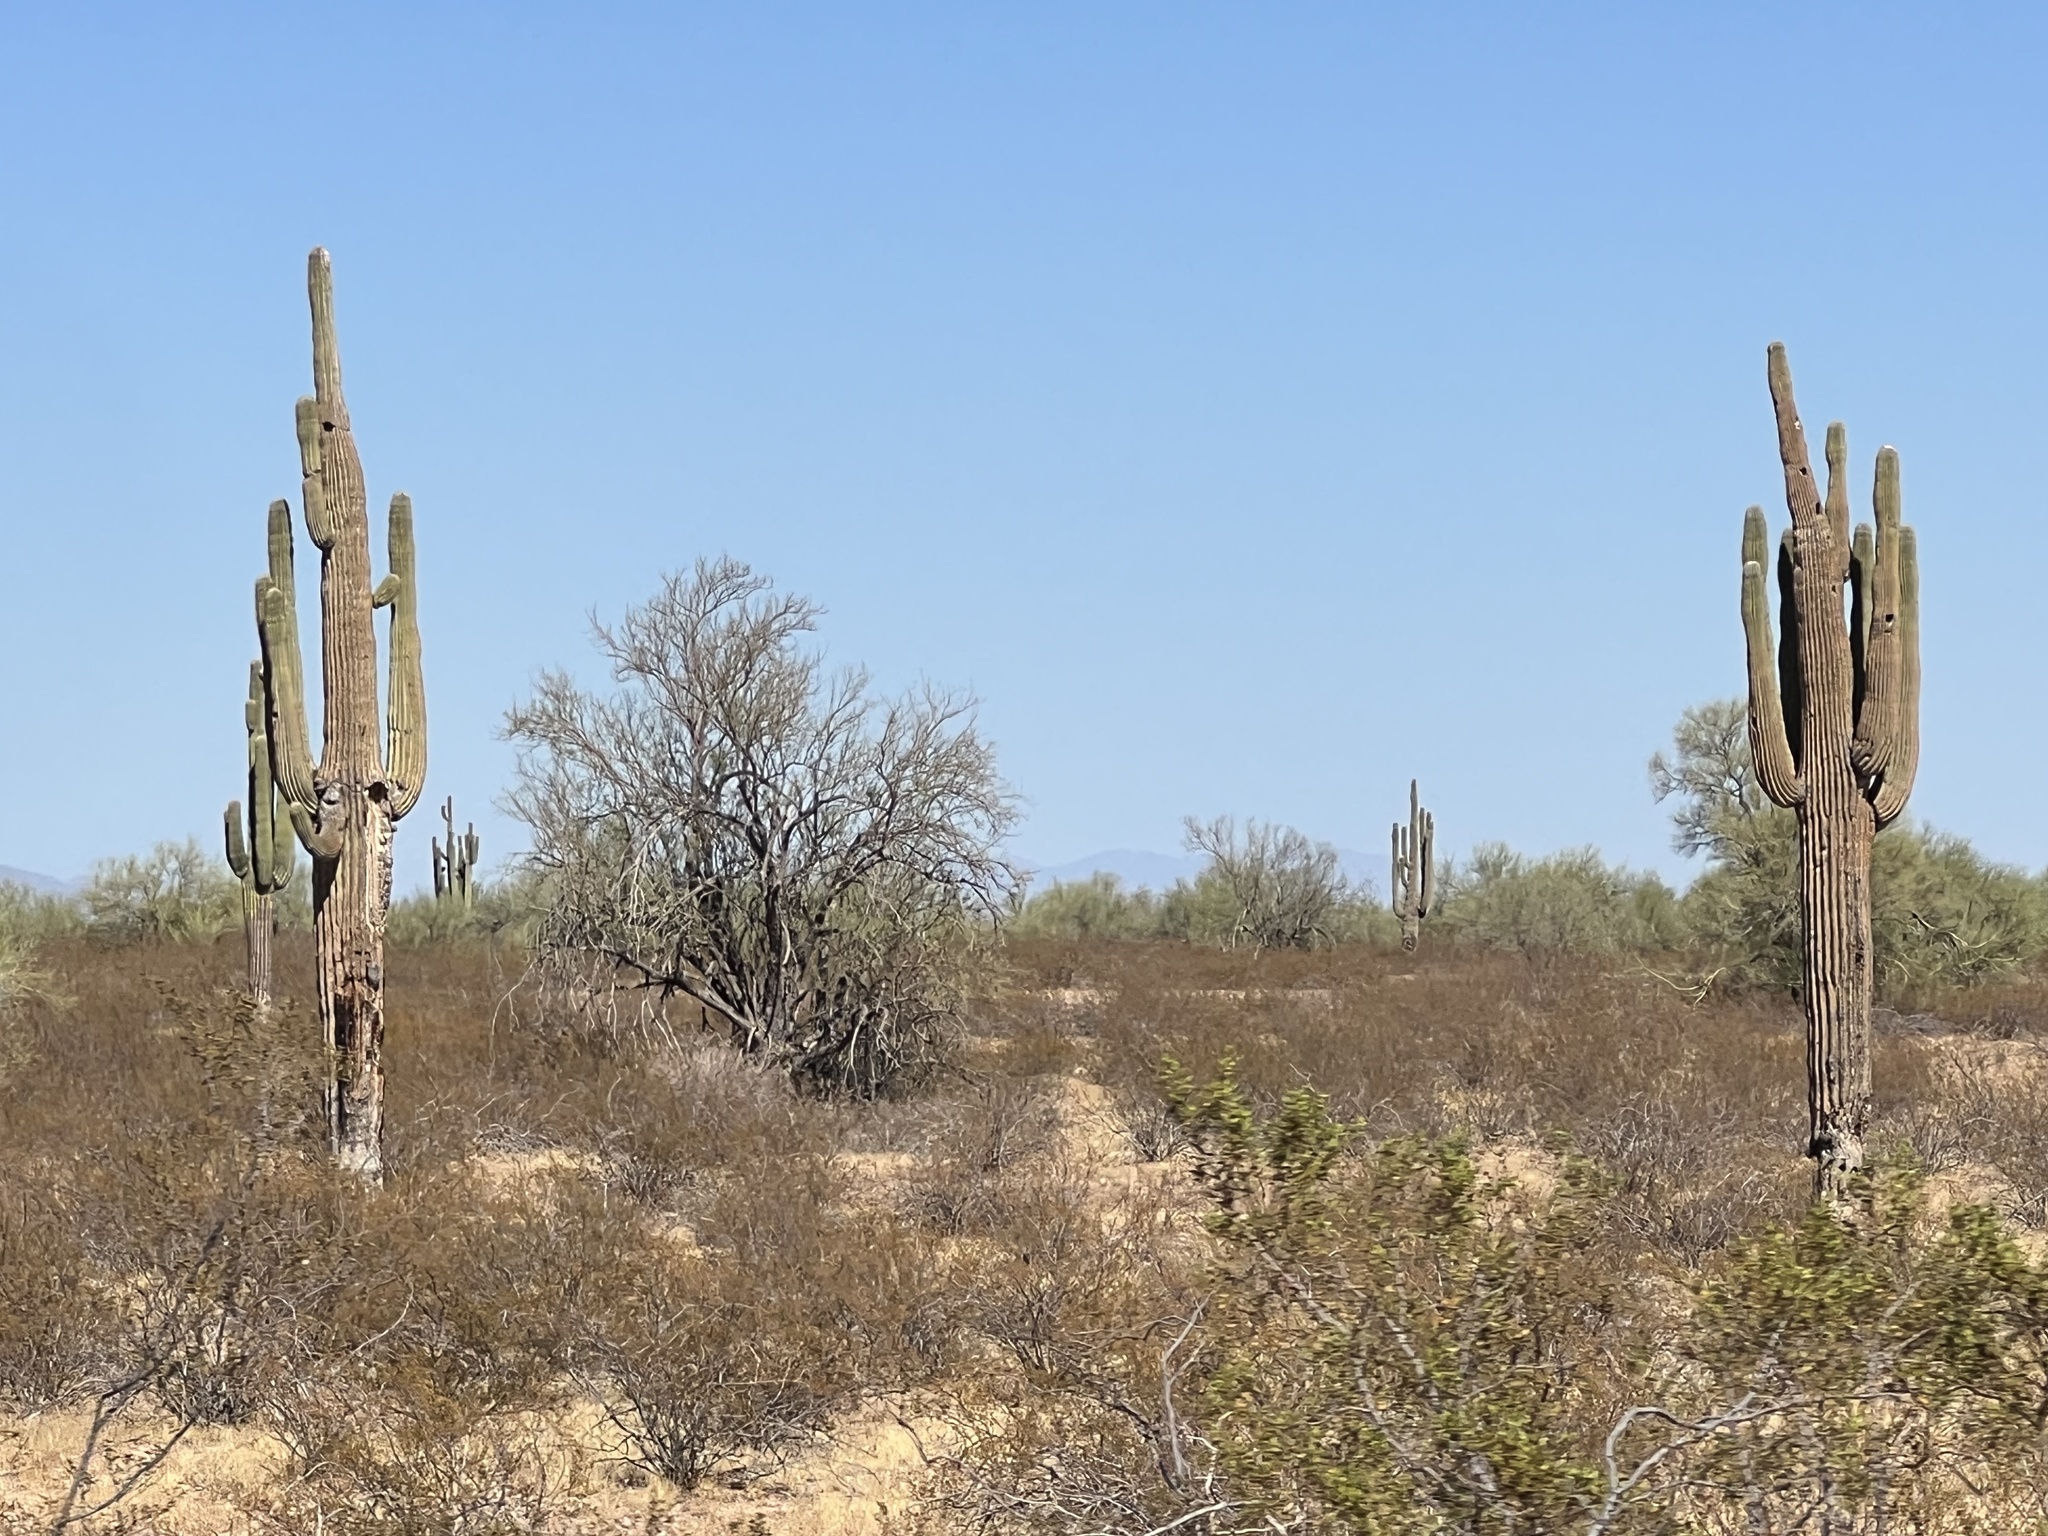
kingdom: Plantae
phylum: Tracheophyta
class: Magnoliopsida
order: Caryophyllales
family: Cactaceae
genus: Carnegiea
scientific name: Carnegiea gigantea
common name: Saguaro
